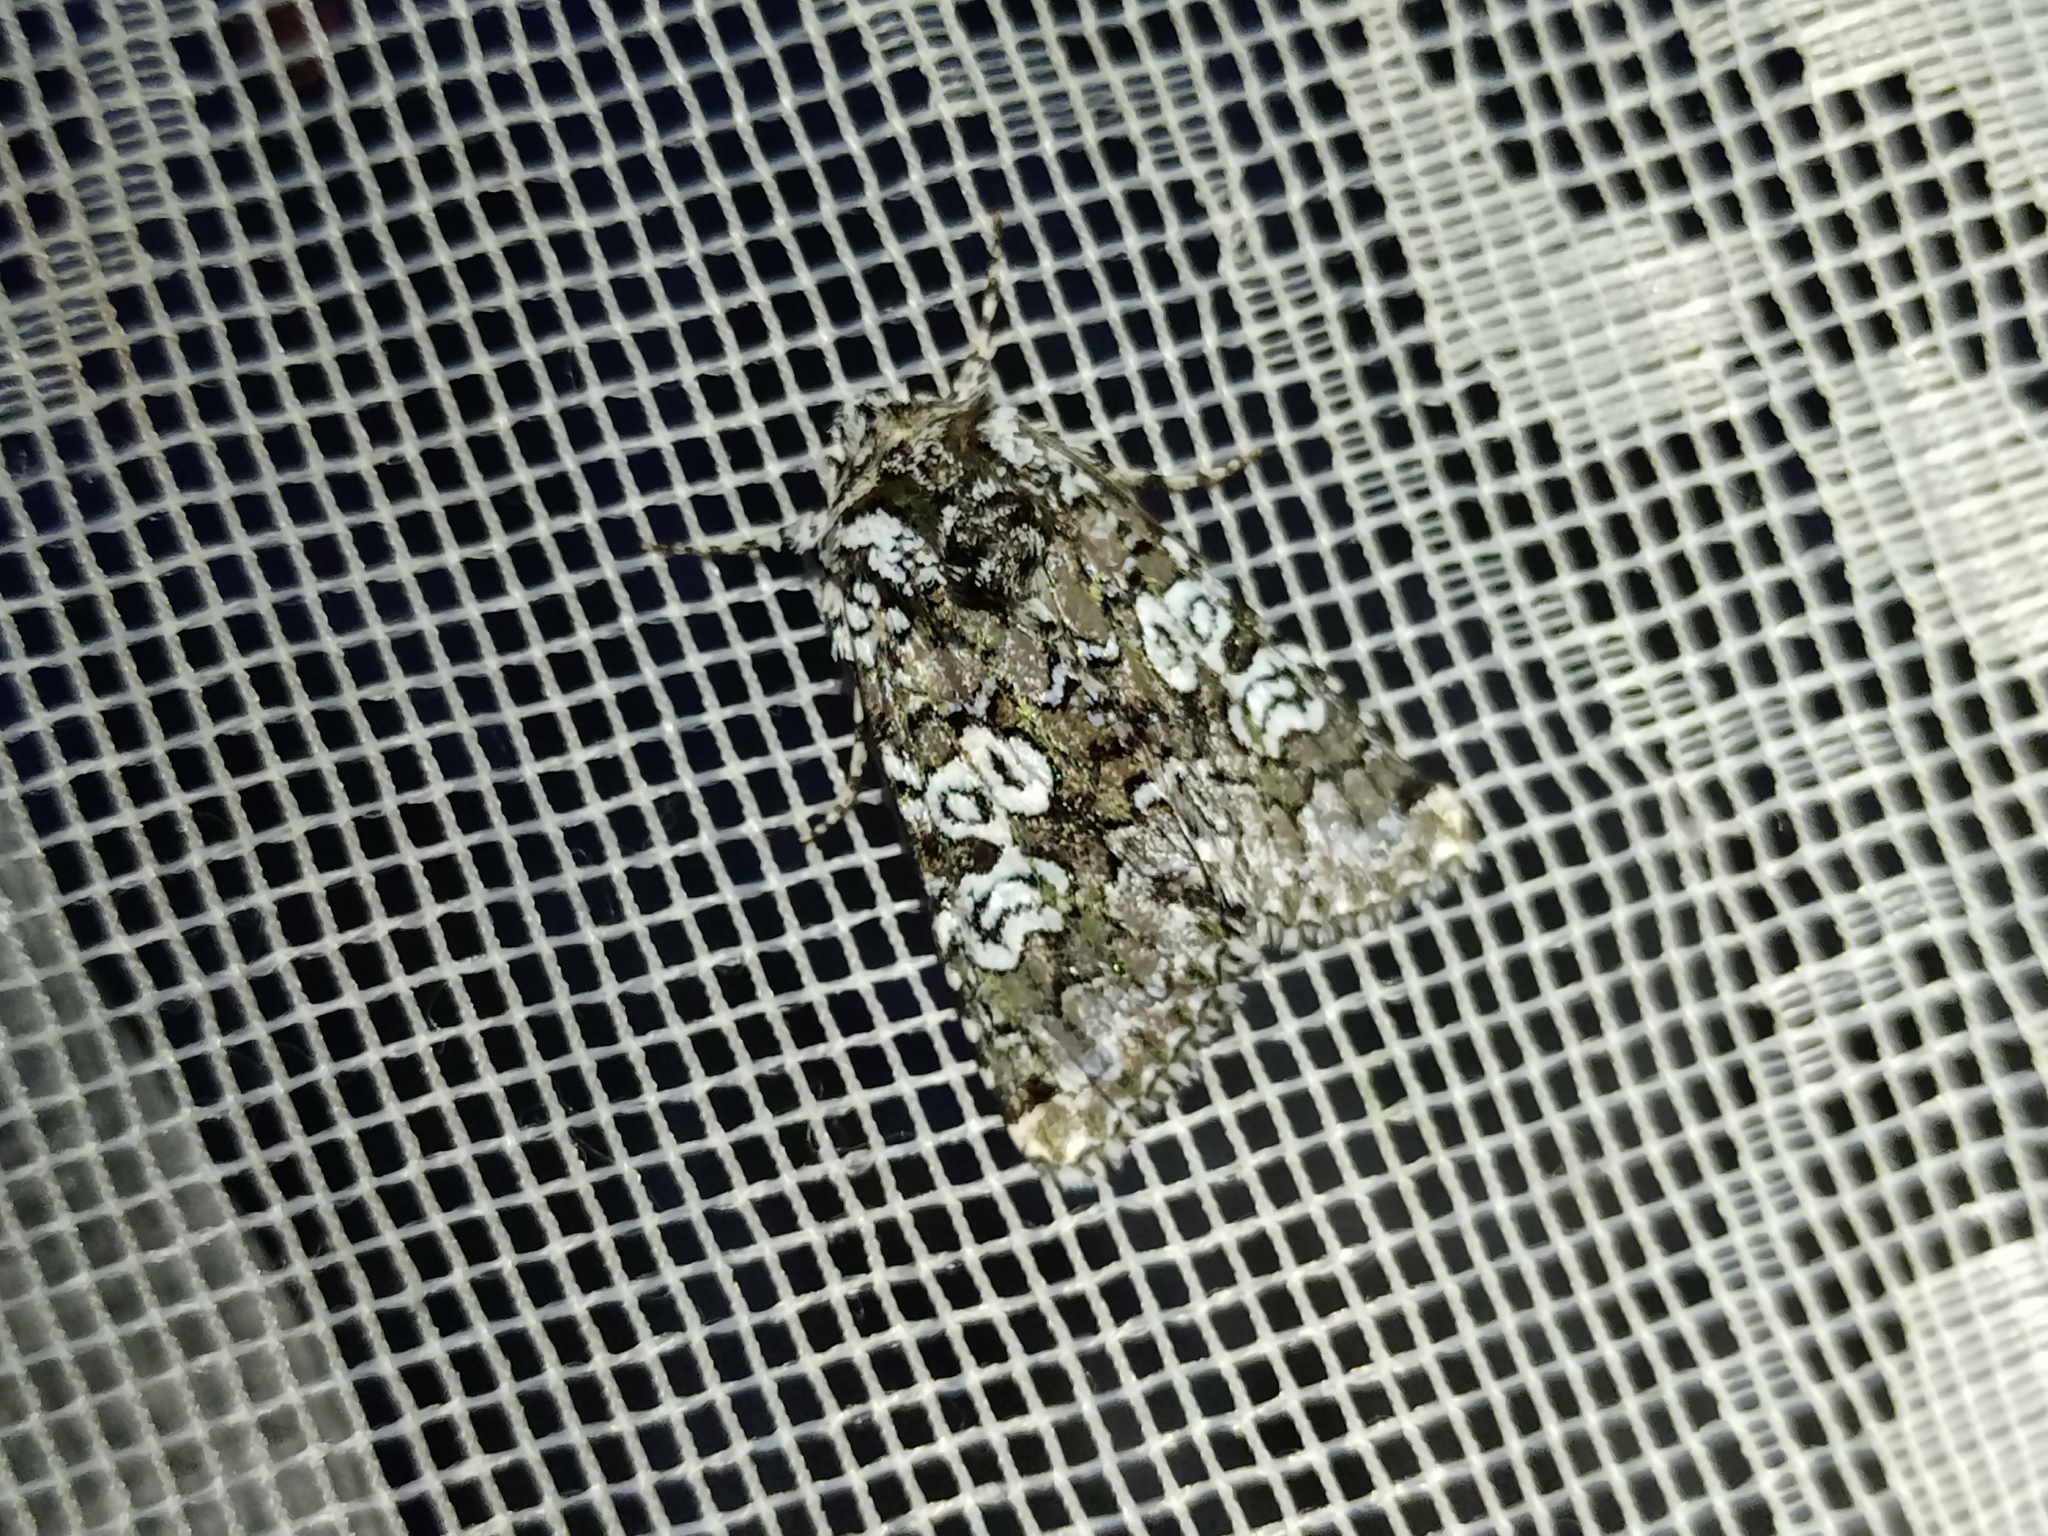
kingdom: Animalia
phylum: Arthropoda
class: Insecta
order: Lepidoptera
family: Noctuidae
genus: Lamprosticta
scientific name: Lamprosticta culta
